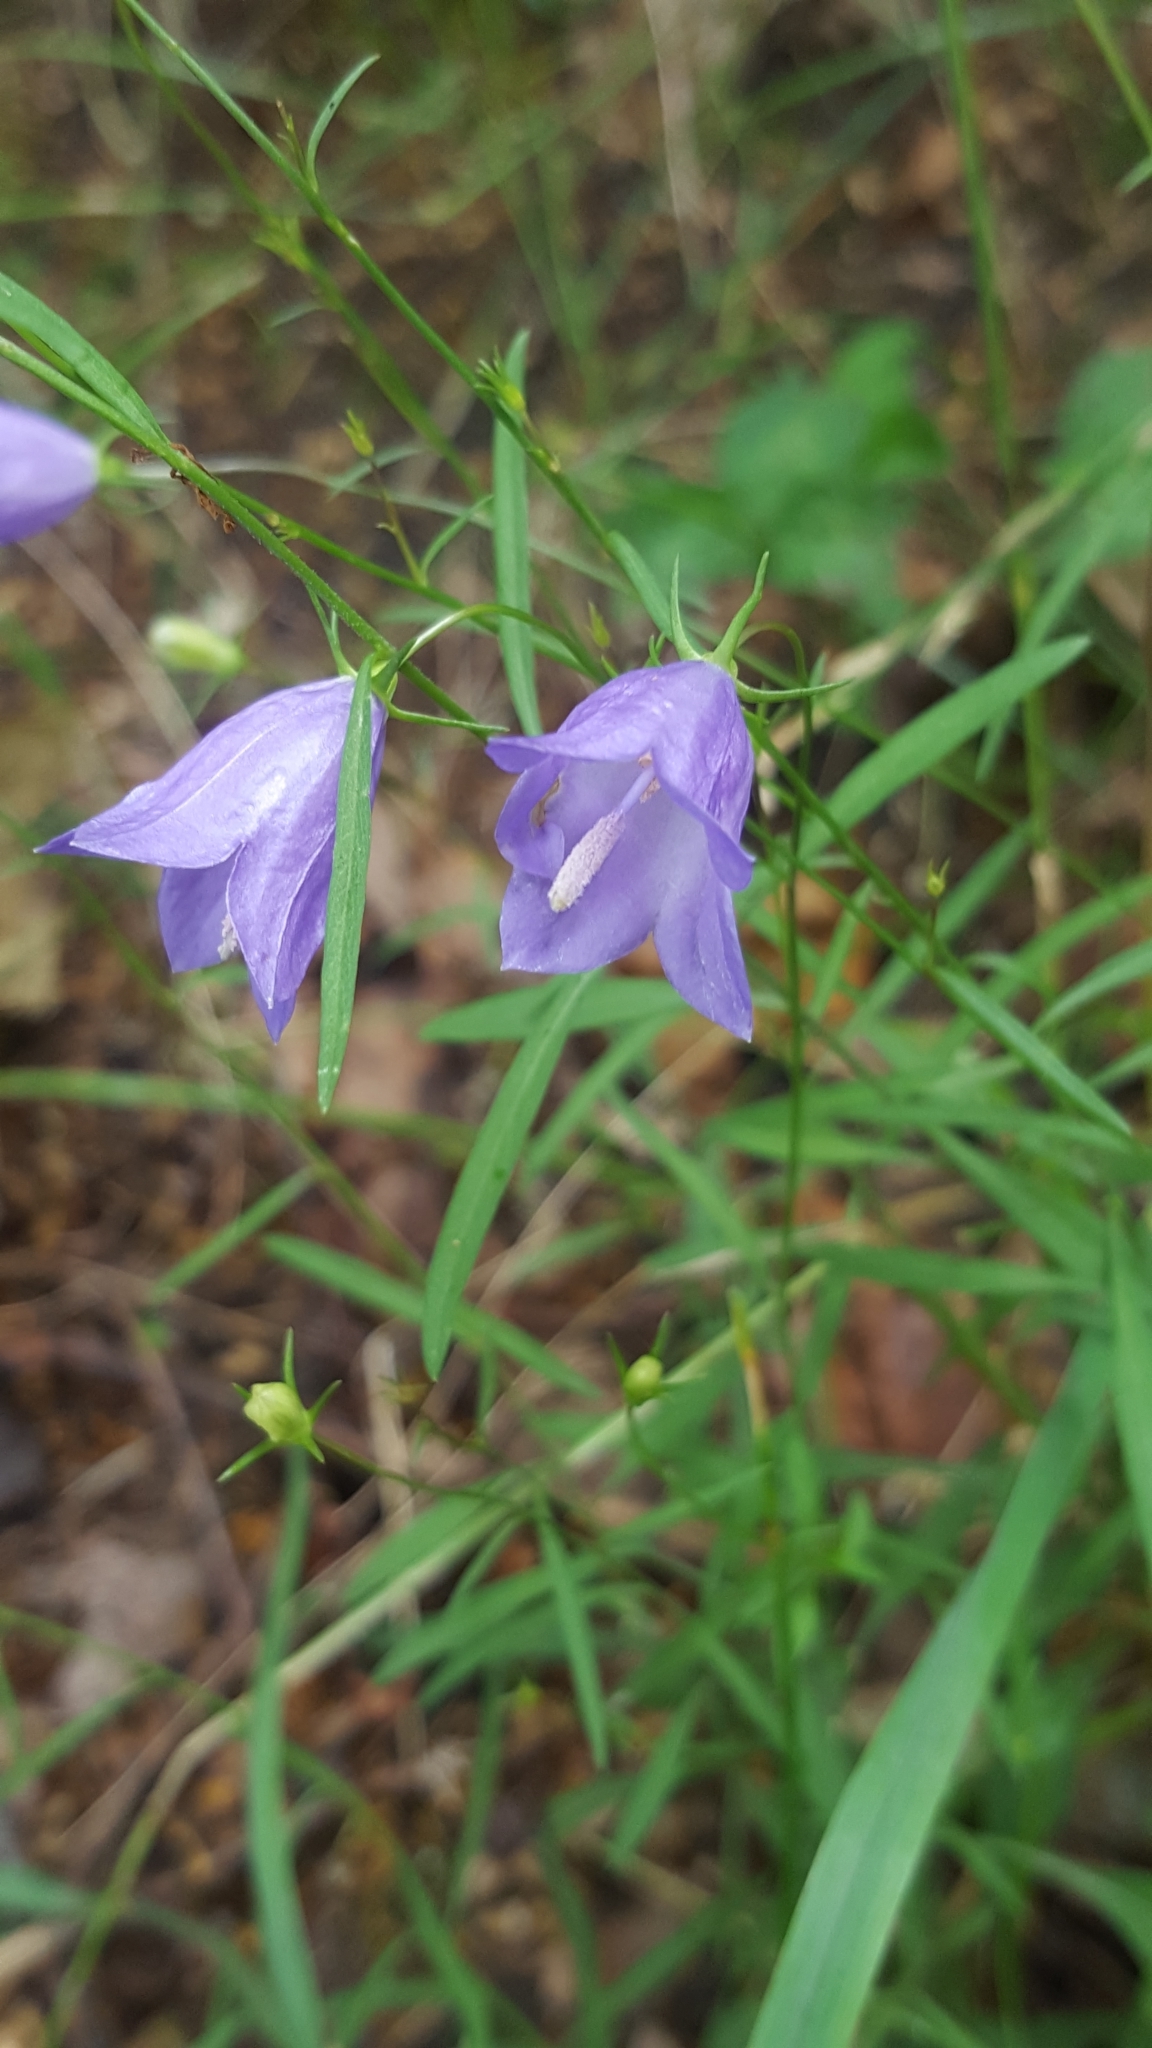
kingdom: Plantae
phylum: Tracheophyta
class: Magnoliopsida
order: Asterales
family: Campanulaceae
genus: Campanula
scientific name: Campanula rotundifolia
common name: Harebell
